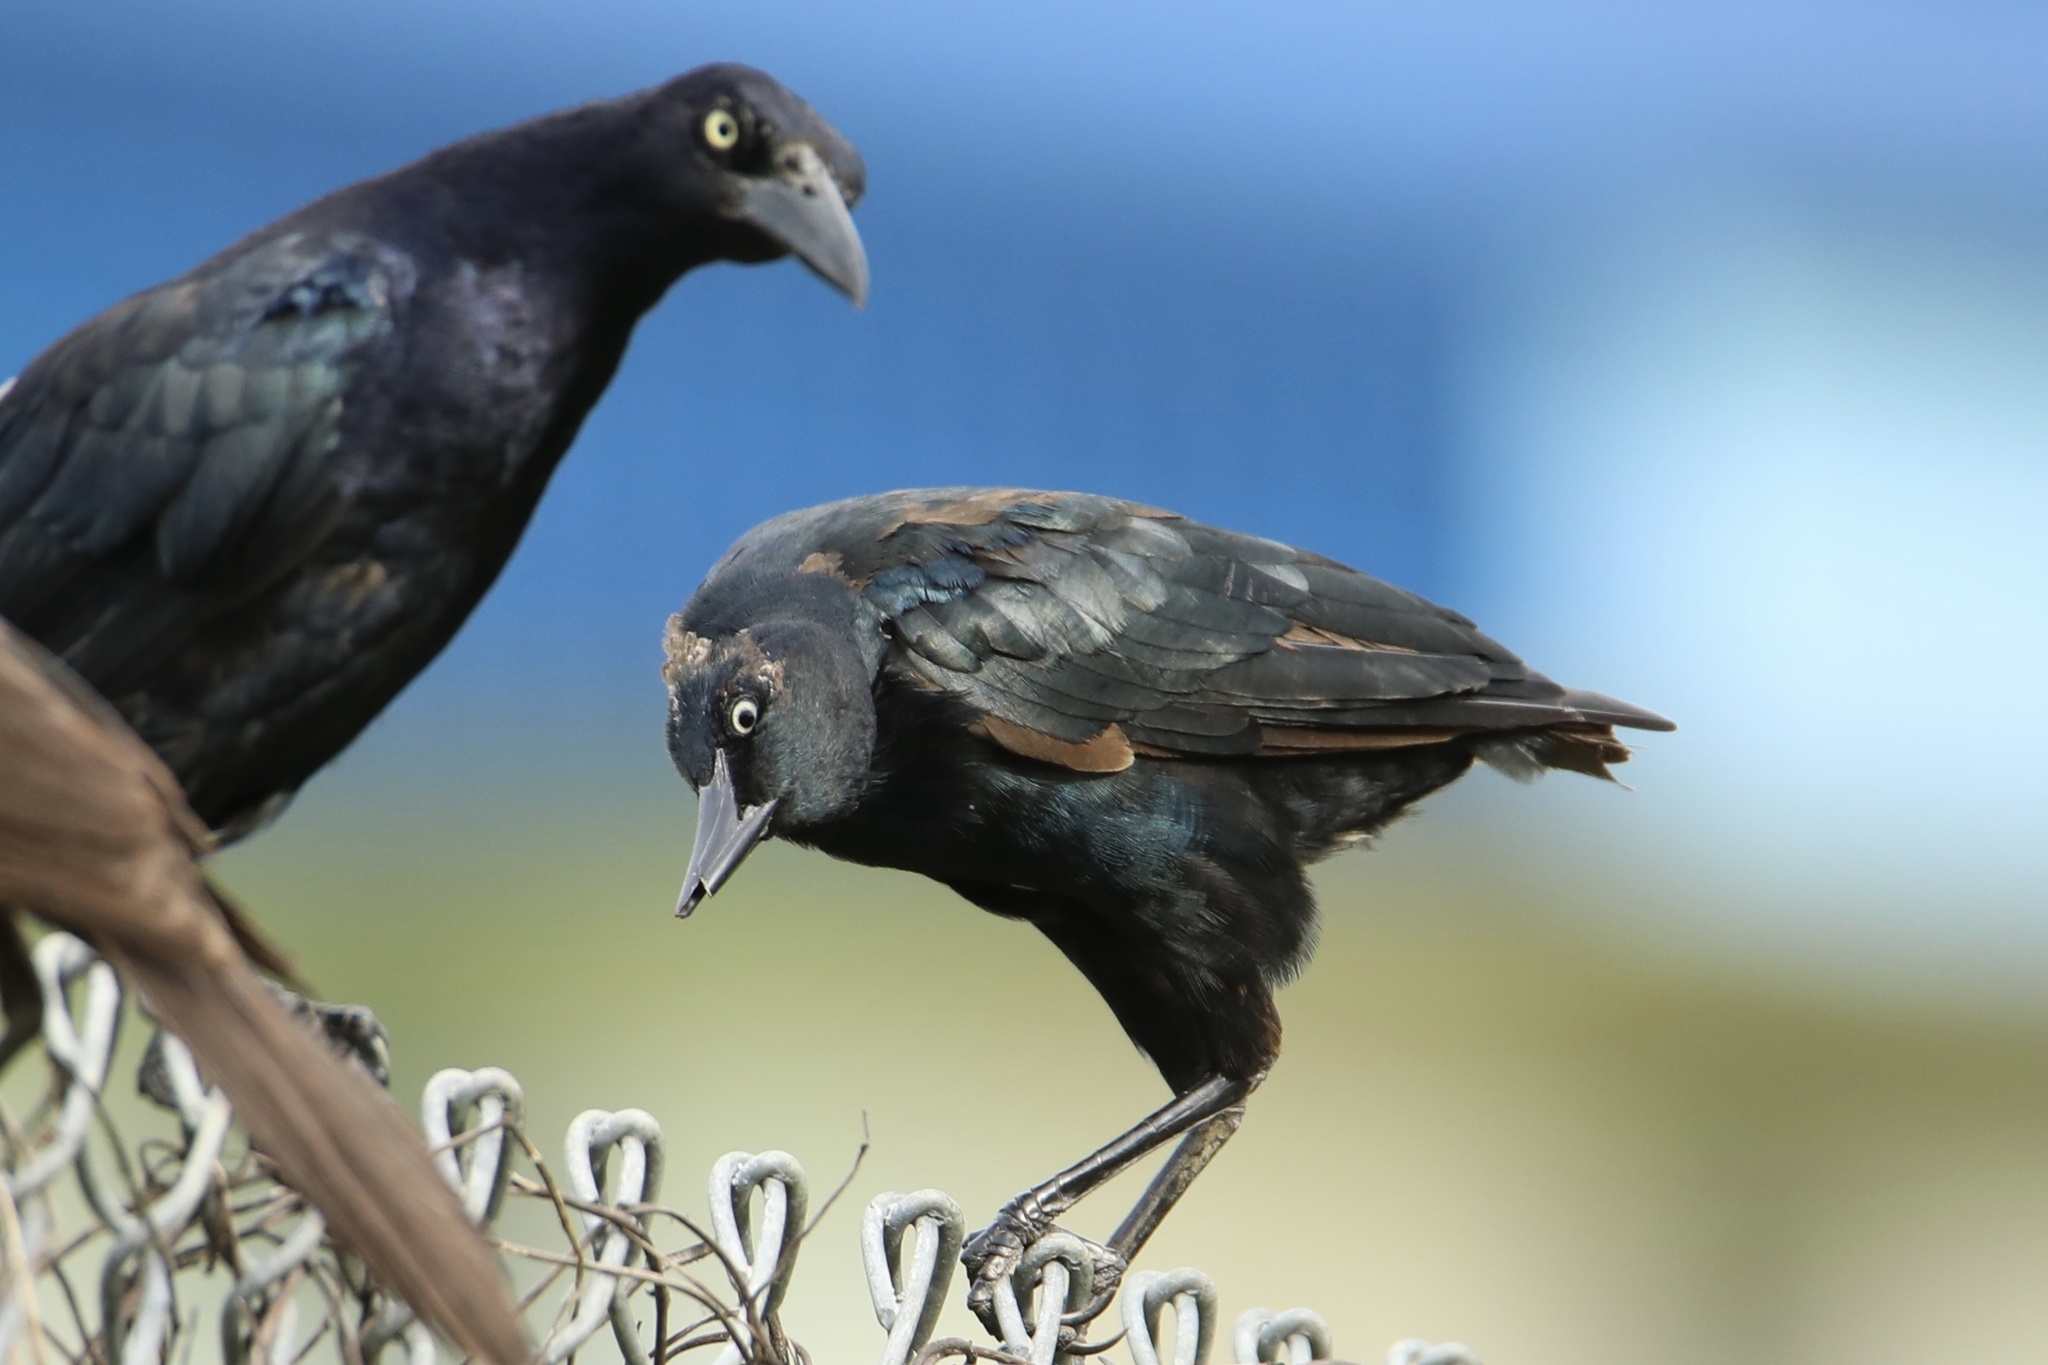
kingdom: Animalia
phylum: Chordata
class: Aves
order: Passeriformes
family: Icteridae
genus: Quiscalus
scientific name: Quiscalus mexicanus
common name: Great-tailed grackle
